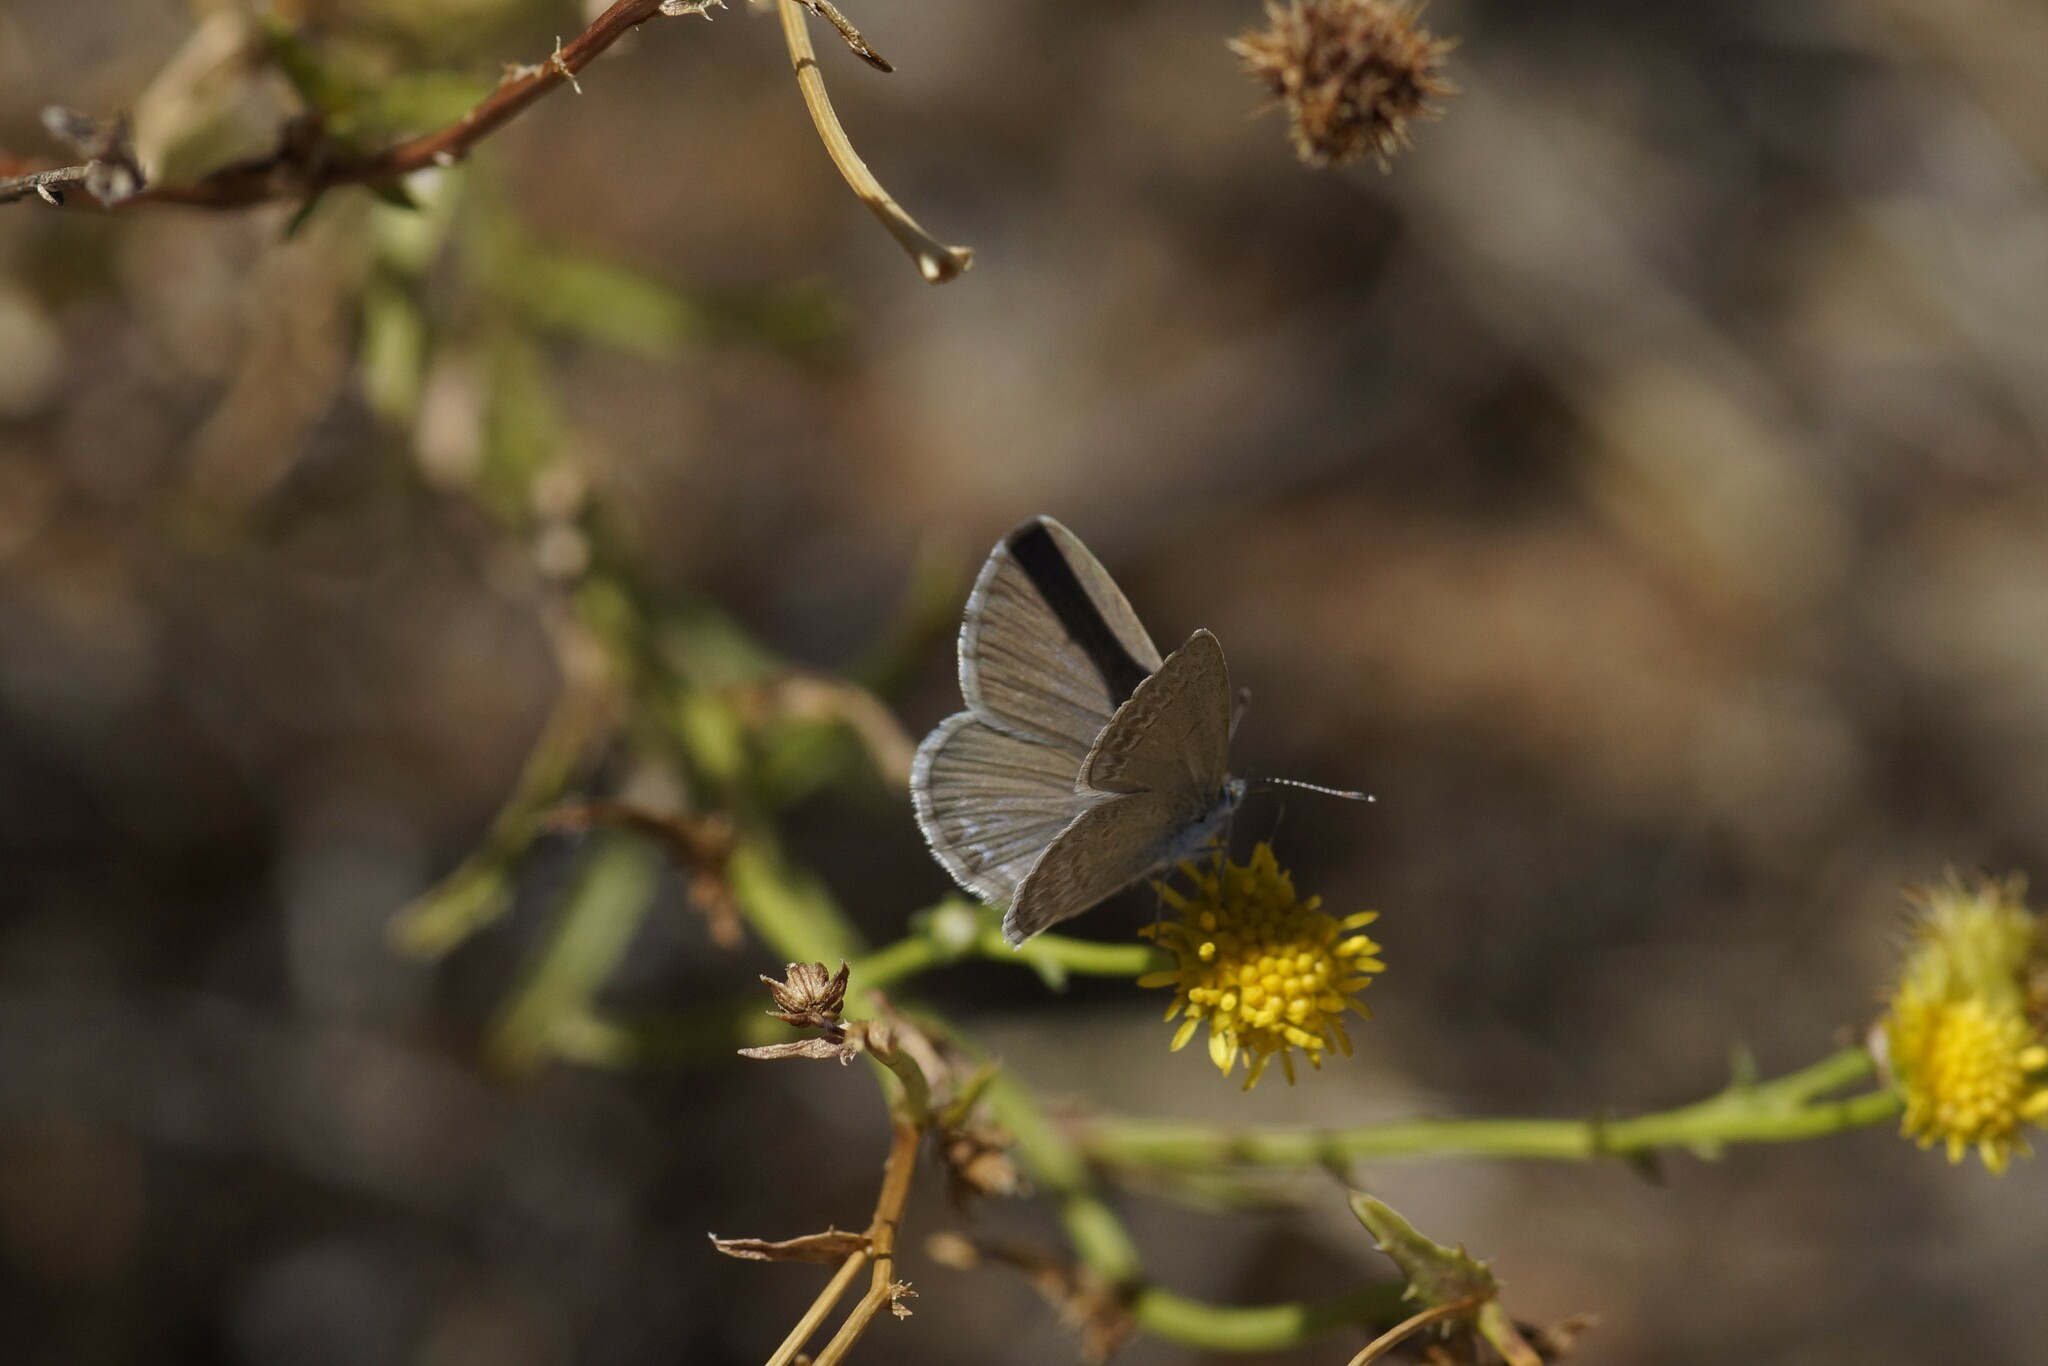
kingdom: Animalia
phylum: Arthropoda
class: Insecta
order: Lepidoptera
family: Lycaenidae
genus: Zizina
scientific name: Zizina otis
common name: Lesser grass blue
